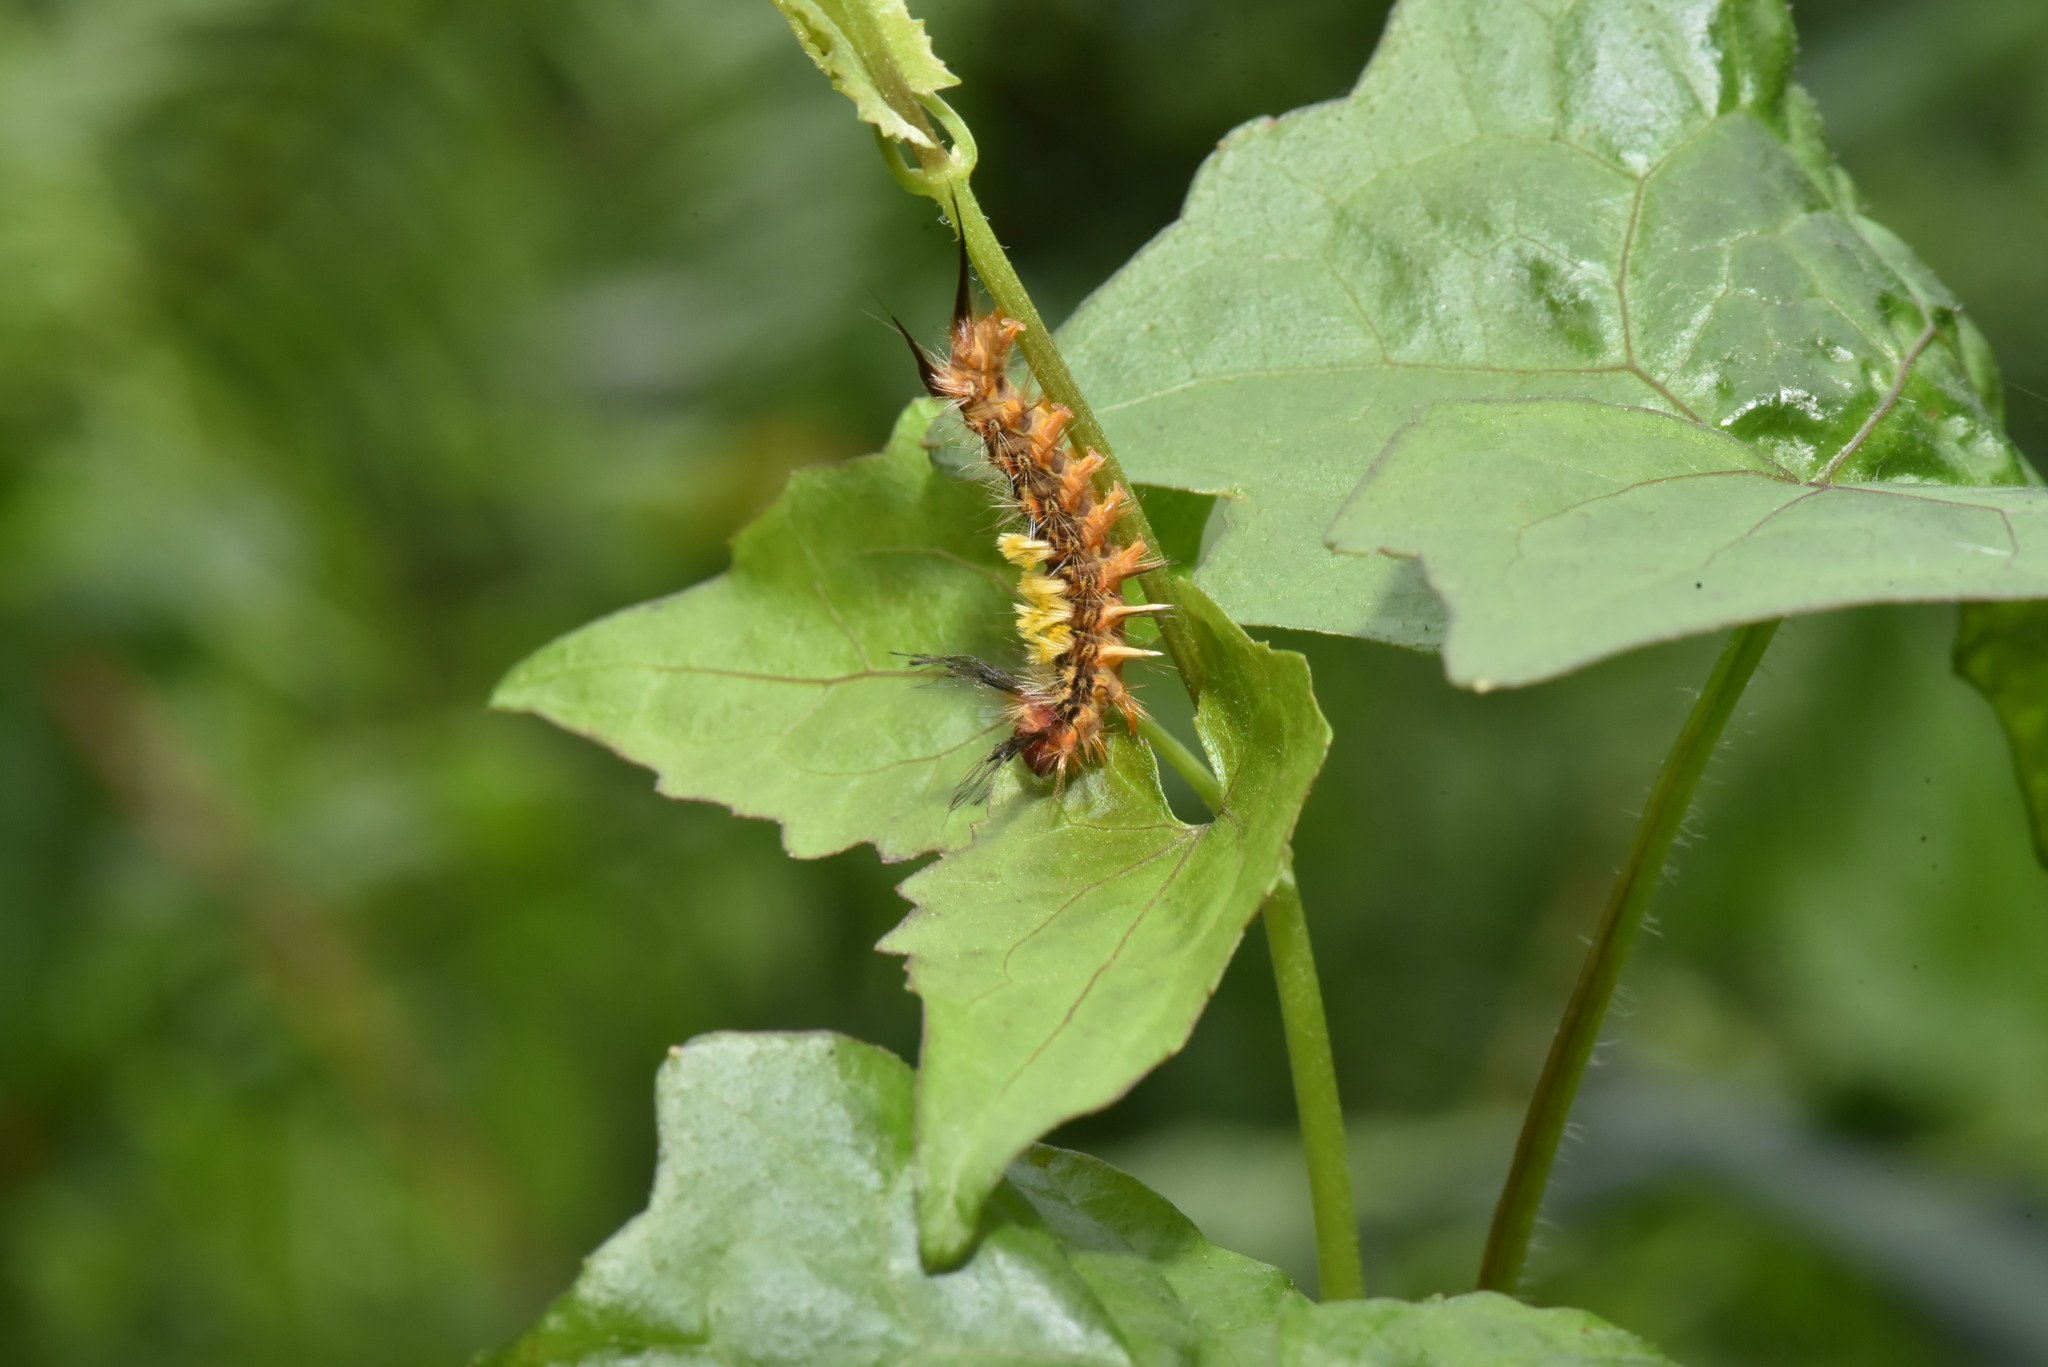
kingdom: Animalia
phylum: Arthropoda
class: Insecta
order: Lepidoptera
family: Erebidae
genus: Orgyia
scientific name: Orgyia postica
